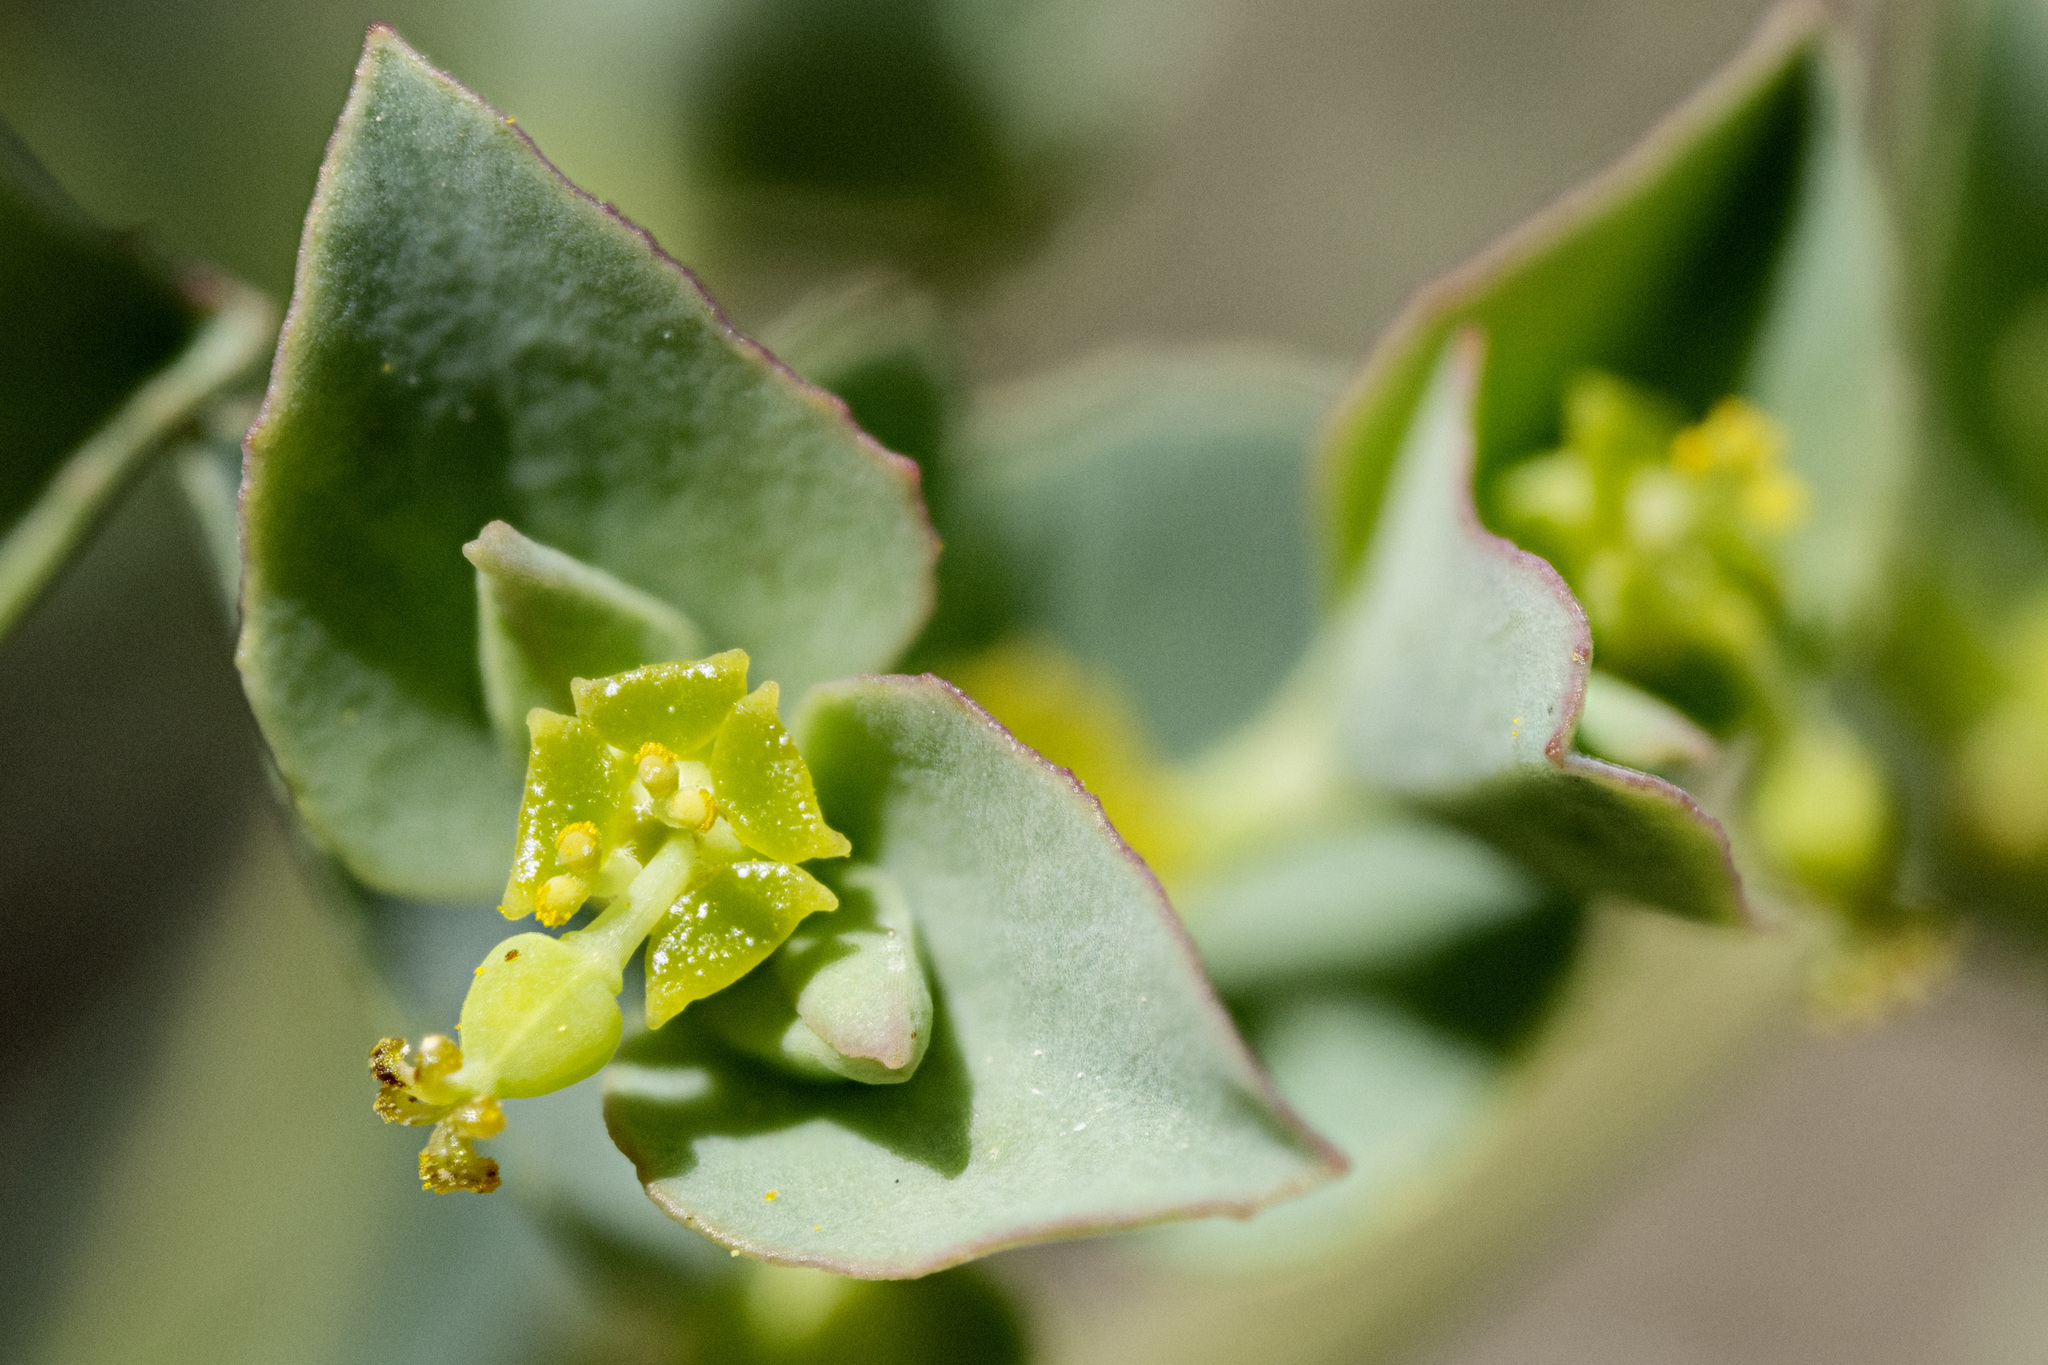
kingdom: Plantae
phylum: Tracheophyta
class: Magnoliopsida
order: Malpighiales
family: Euphorbiaceae
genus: Euphorbia
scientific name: Euphorbia brachycera
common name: Shorthorn spurge
